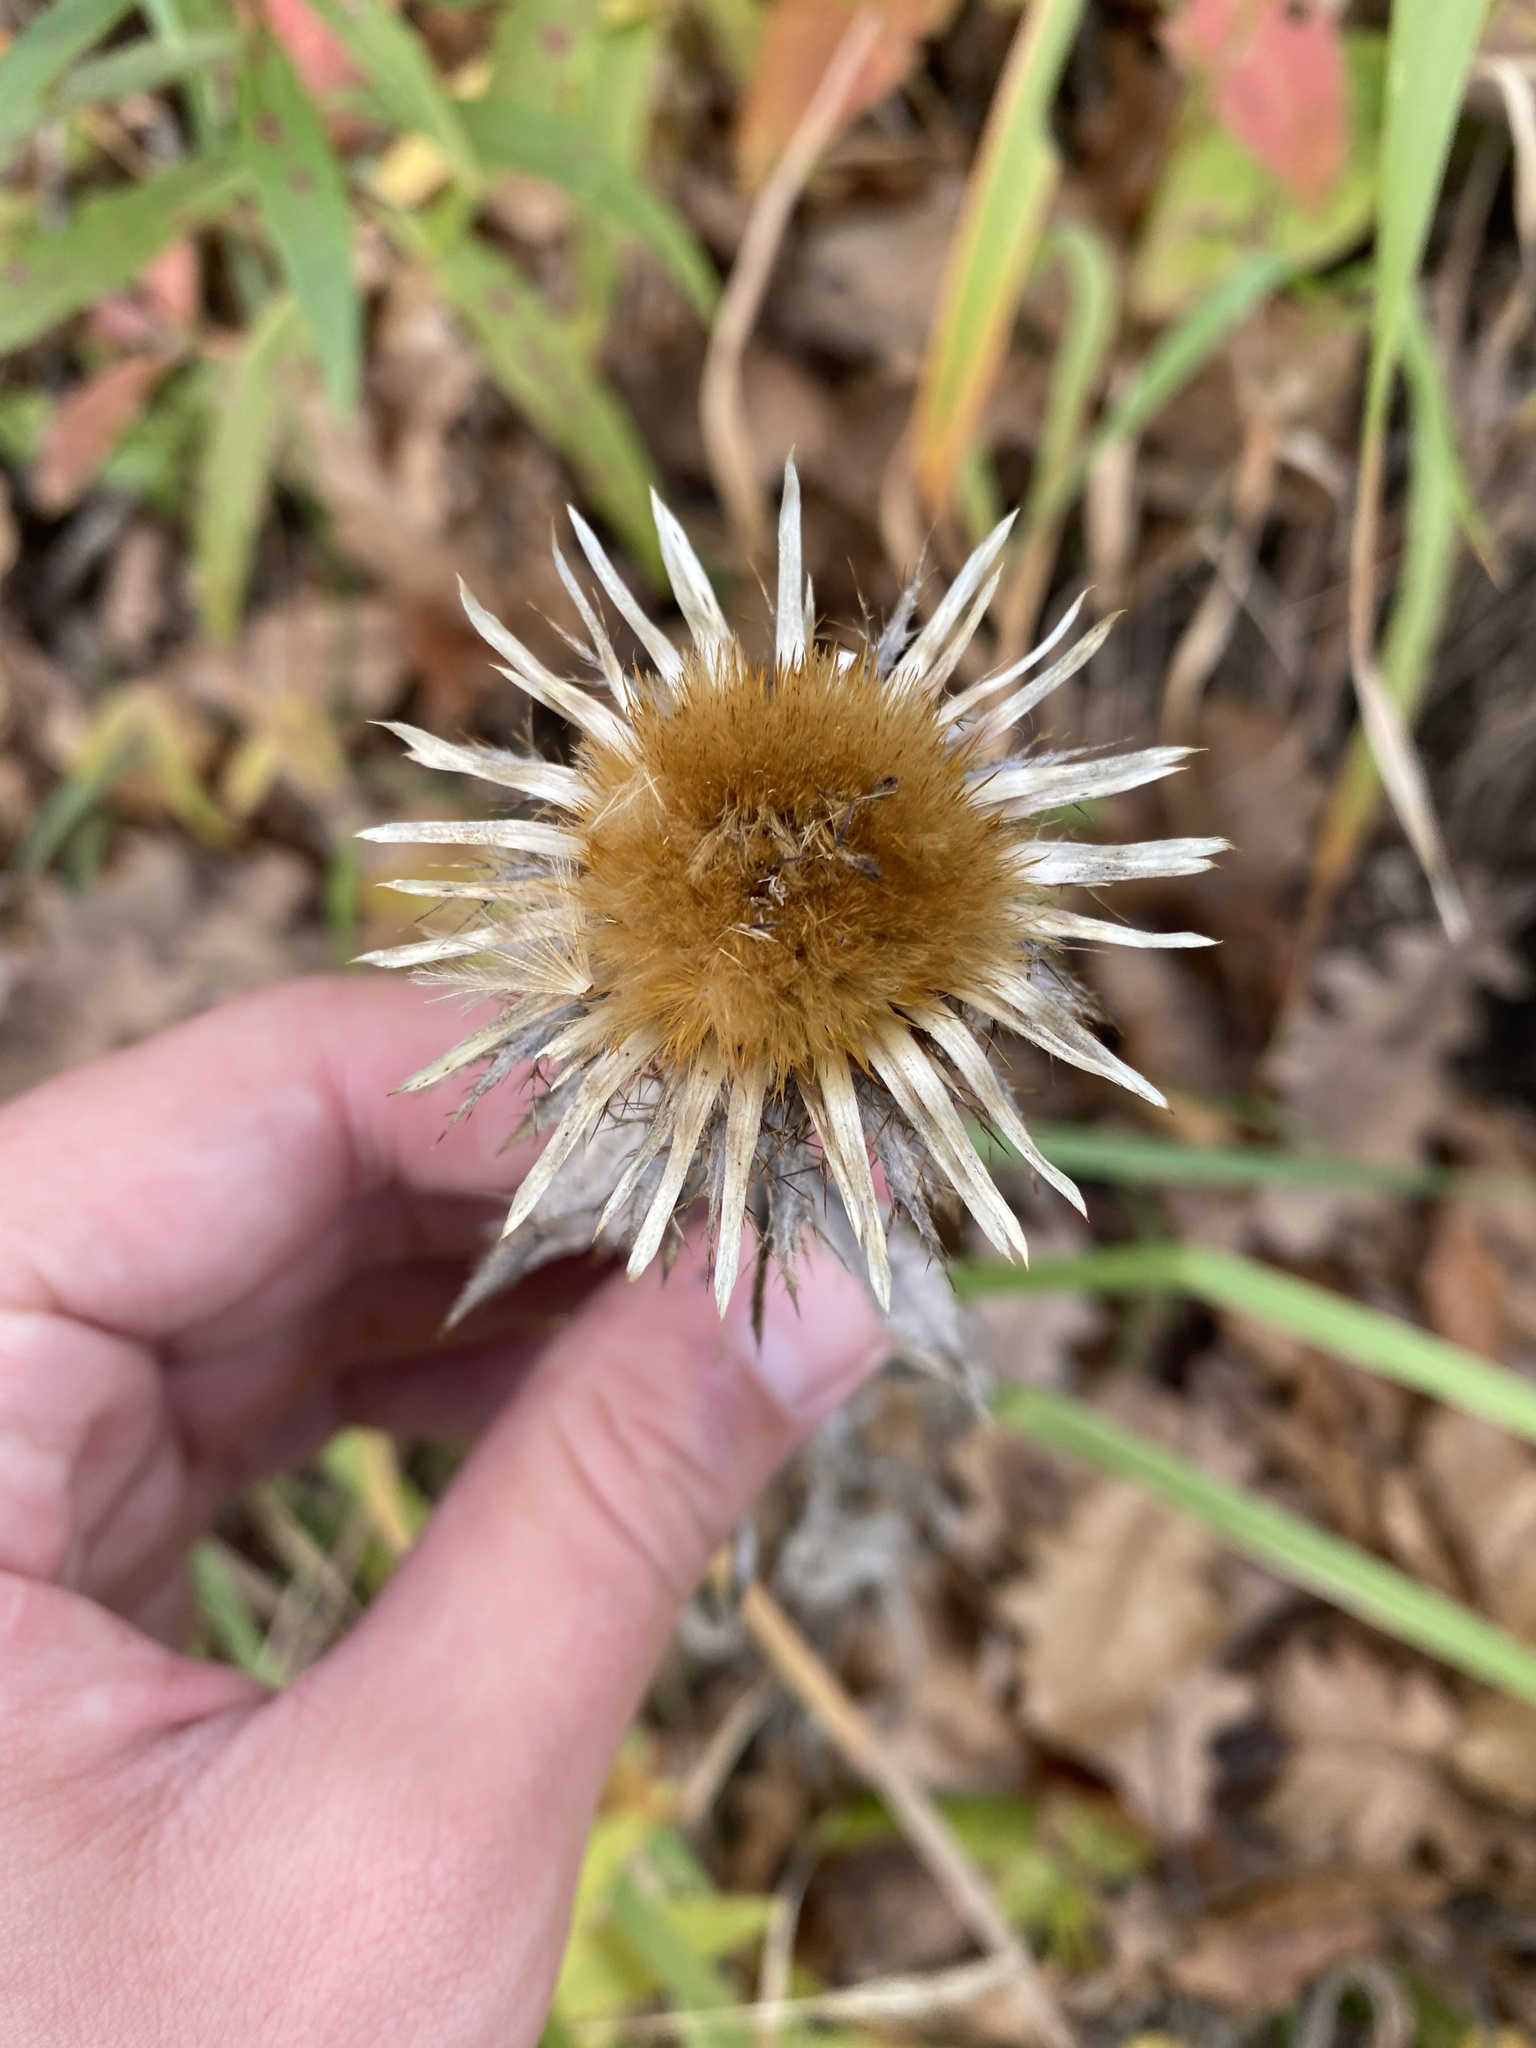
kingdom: Plantae
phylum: Tracheophyta
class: Magnoliopsida
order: Asterales
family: Asteraceae
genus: Carlina
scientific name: Carlina biebersteinii
